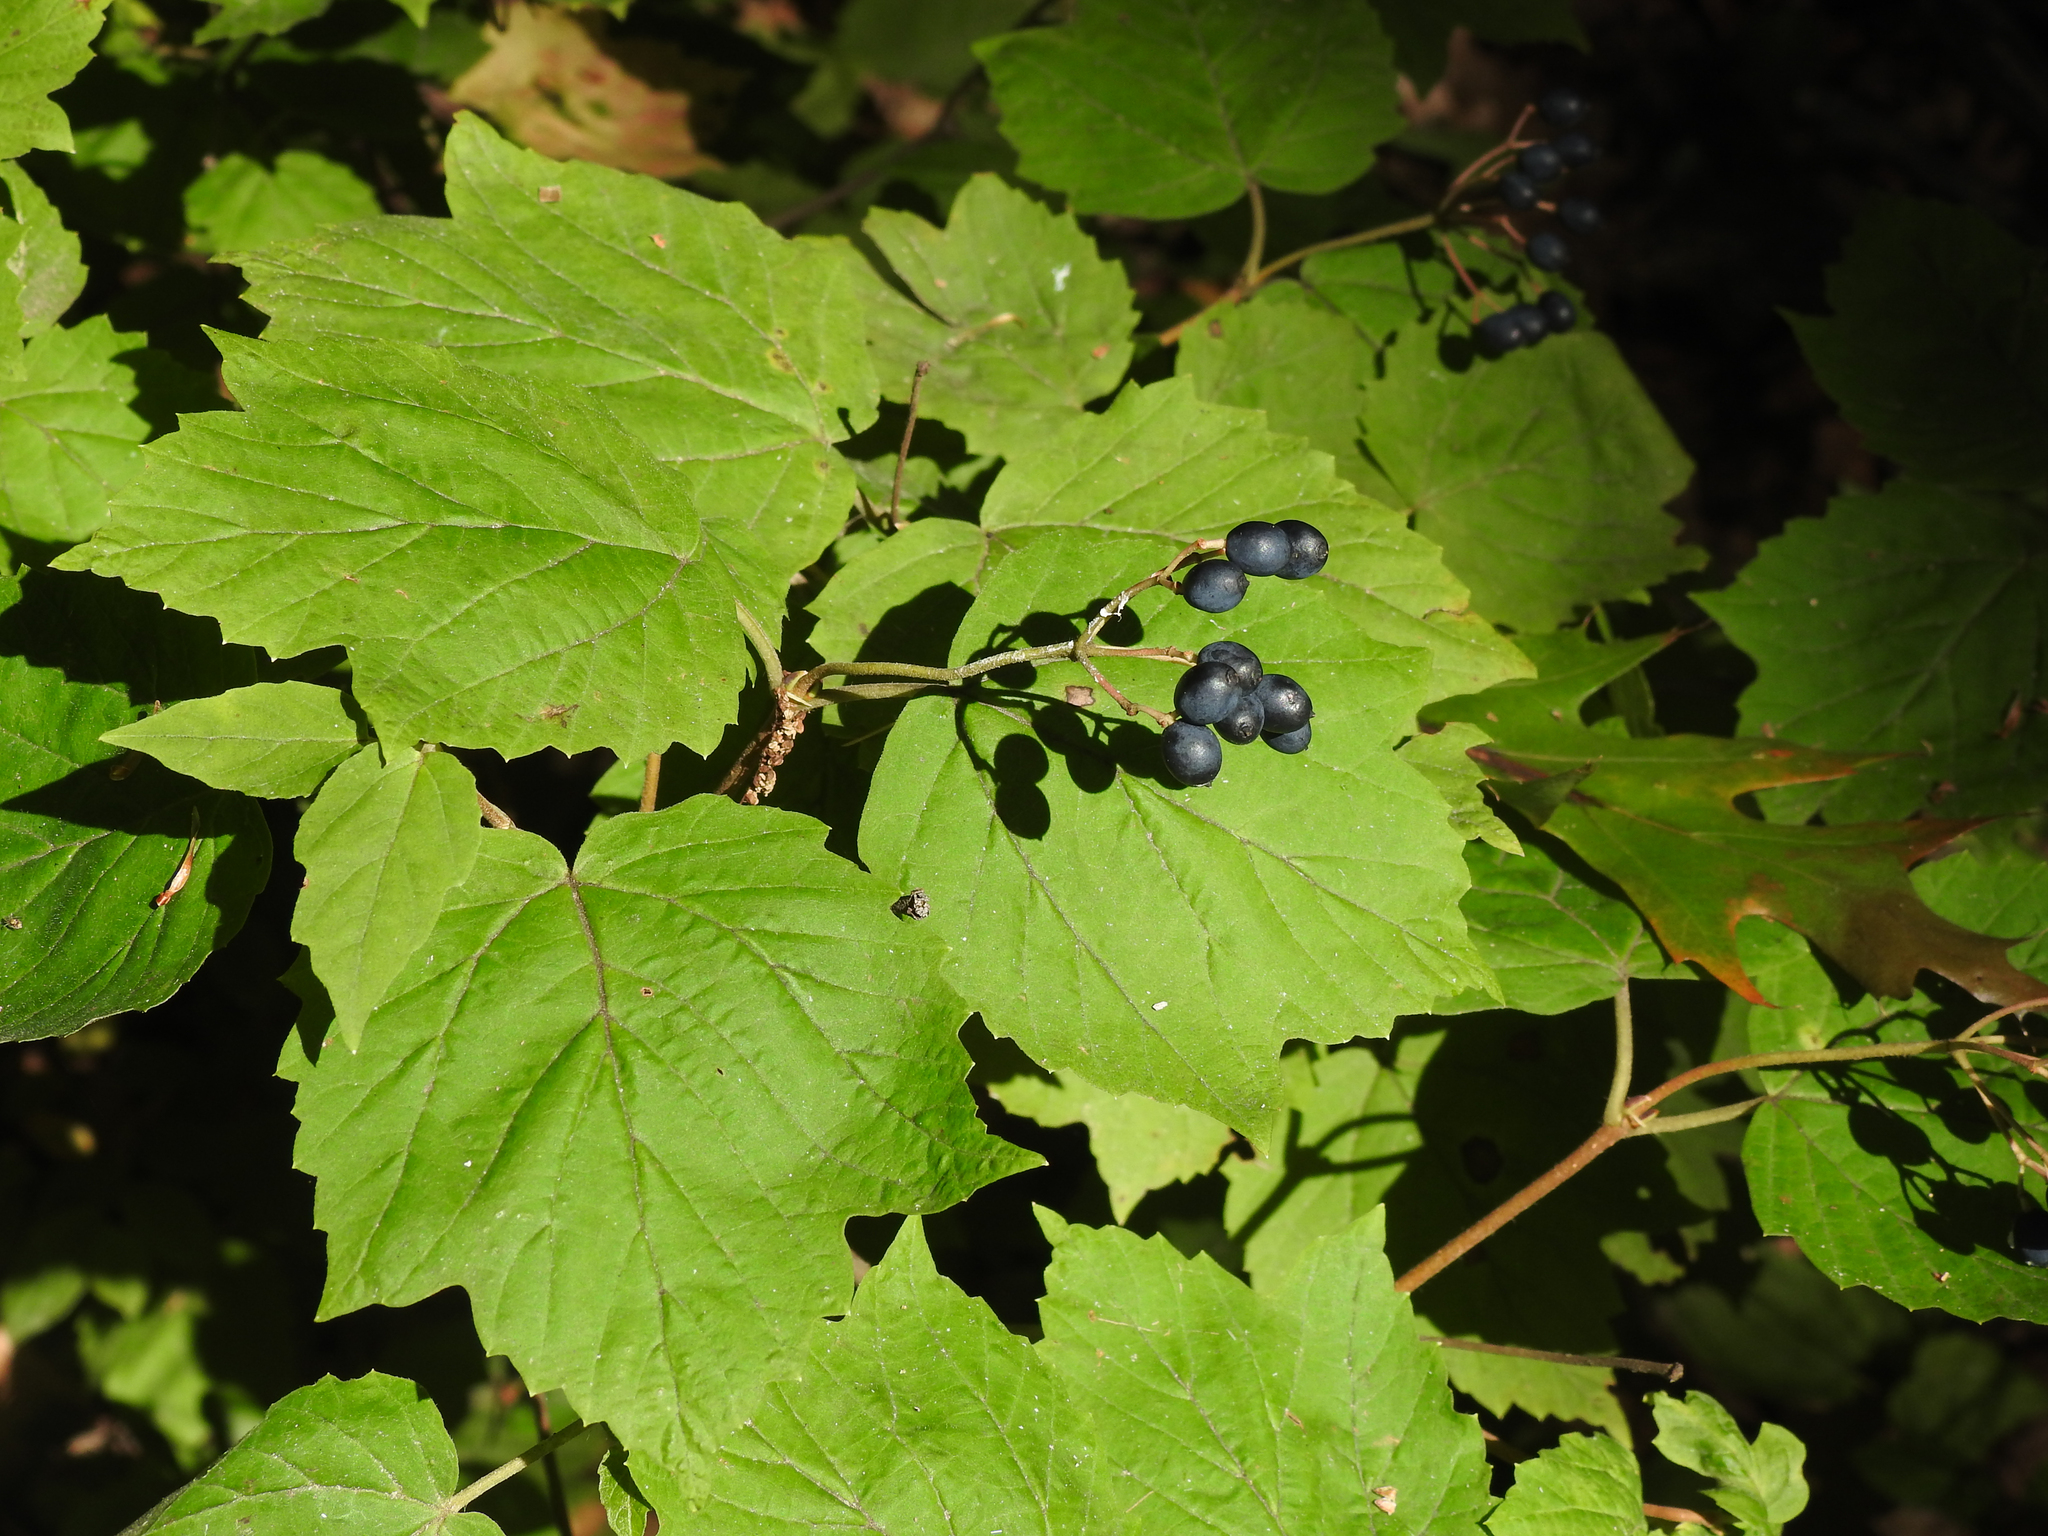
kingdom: Plantae
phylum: Tracheophyta
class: Magnoliopsida
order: Dipsacales
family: Viburnaceae
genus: Viburnum
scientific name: Viburnum acerifolium
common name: Dockmackie
